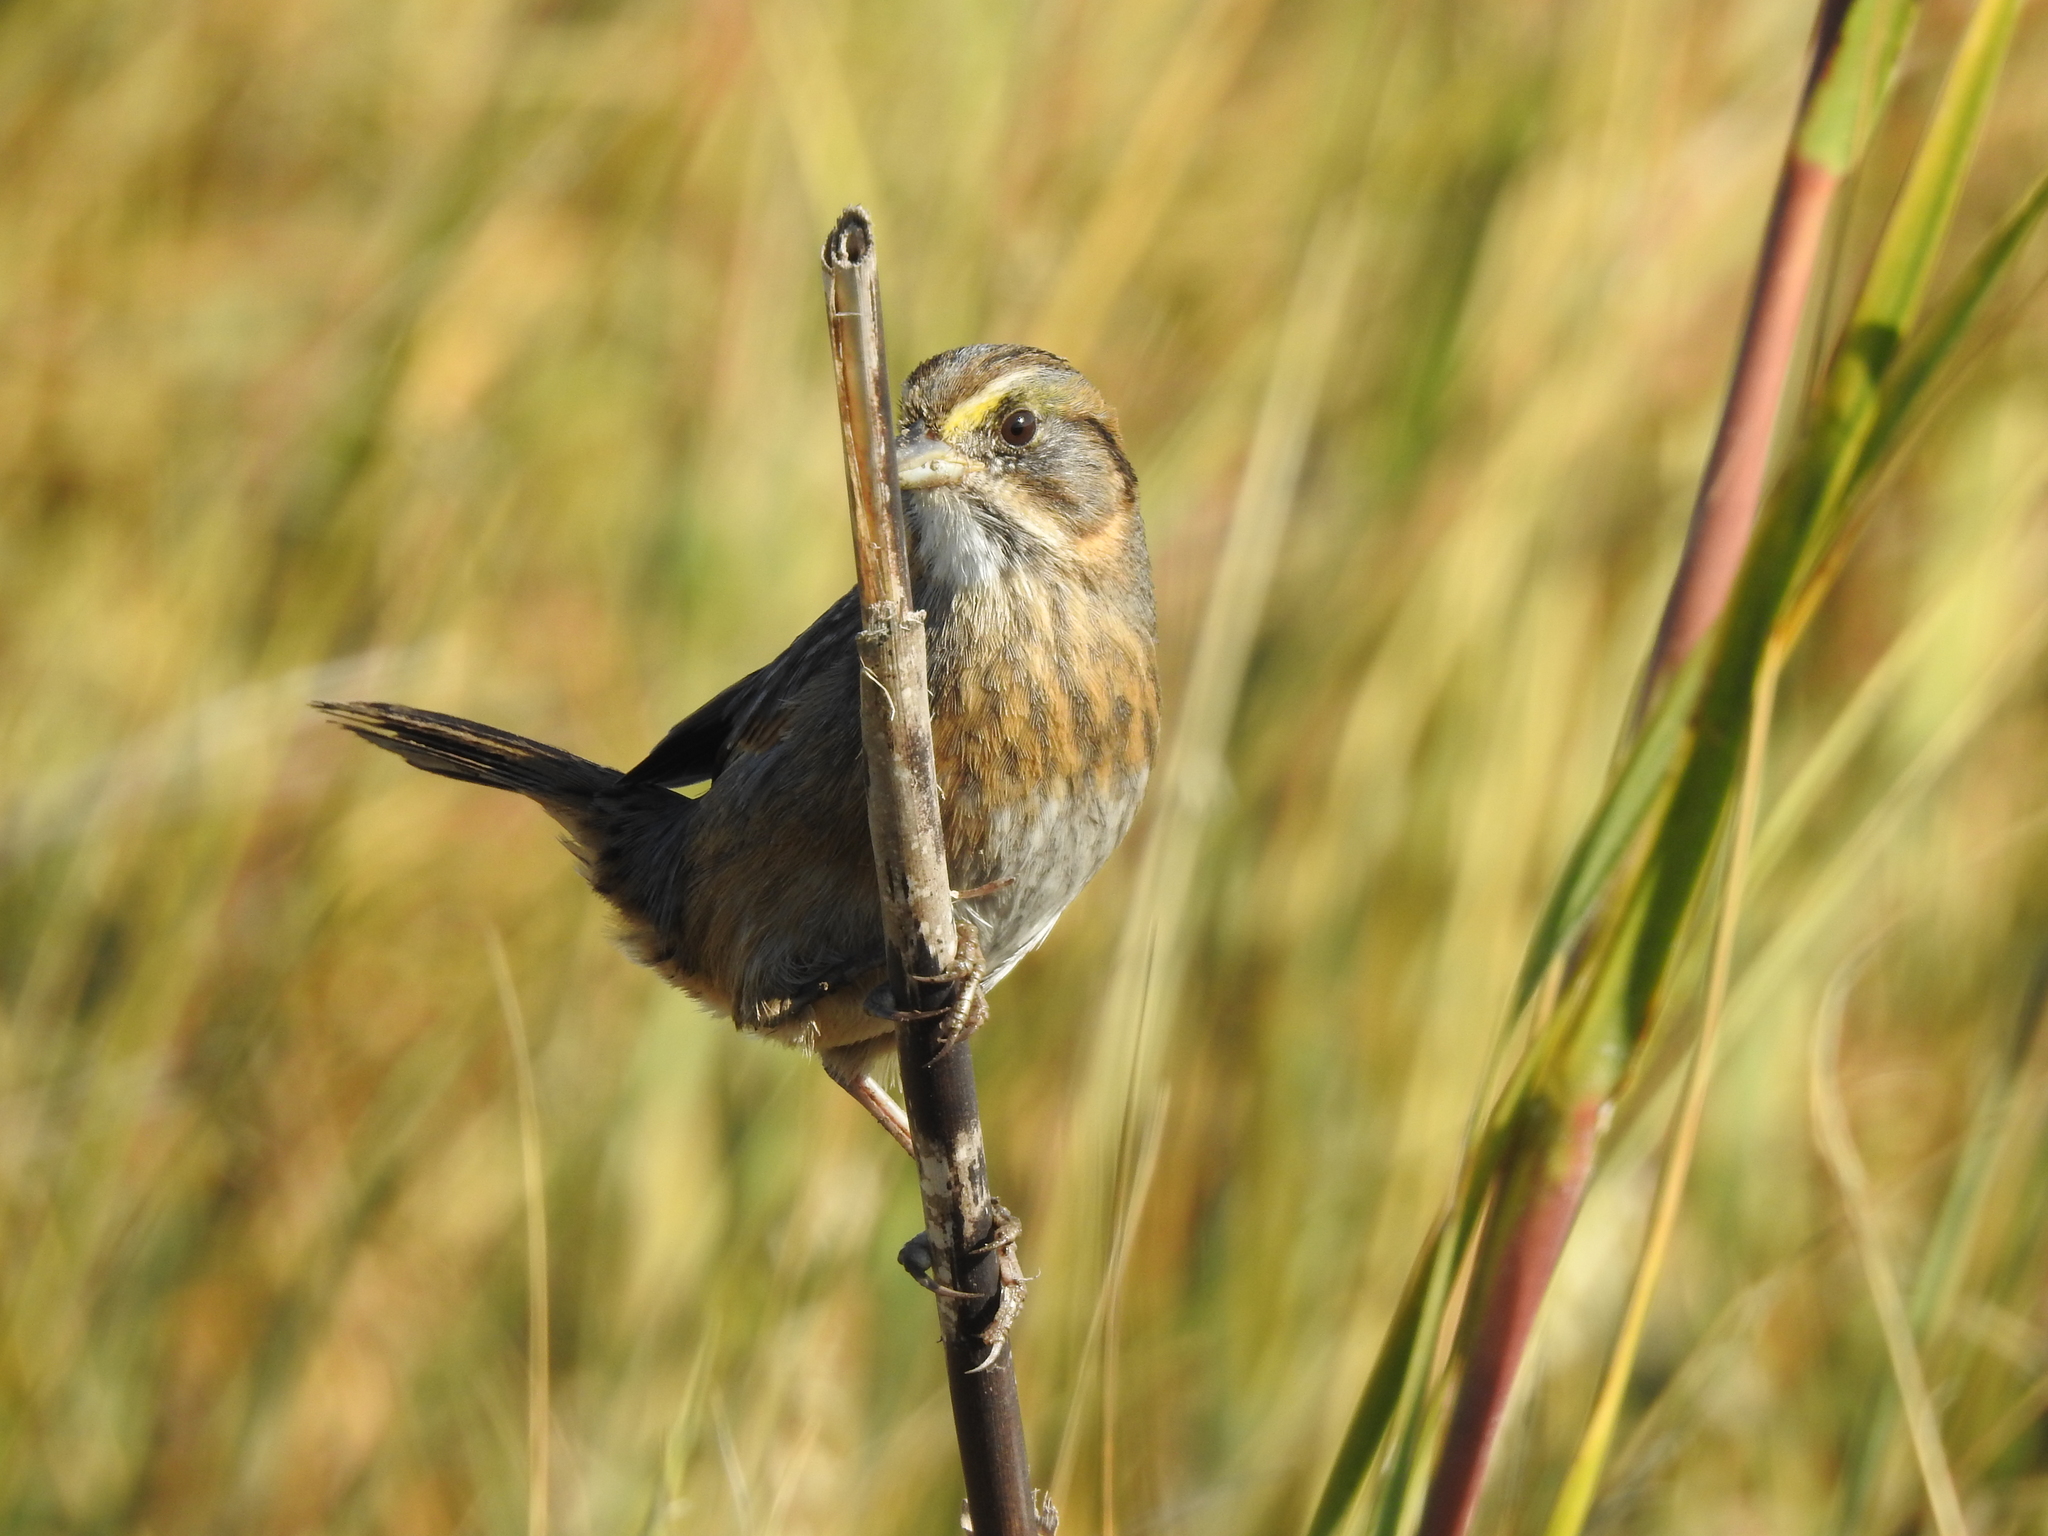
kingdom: Animalia
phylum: Chordata
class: Aves
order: Passeriformes
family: Passerellidae
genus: Ammospiza
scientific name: Ammospiza maritima
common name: Seaside sparrow
